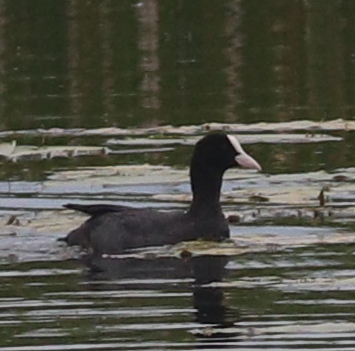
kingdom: Animalia
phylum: Chordata
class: Aves
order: Gruiformes
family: Rallidae
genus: Fulica
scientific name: Fulica atra
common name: Eurasian coot
